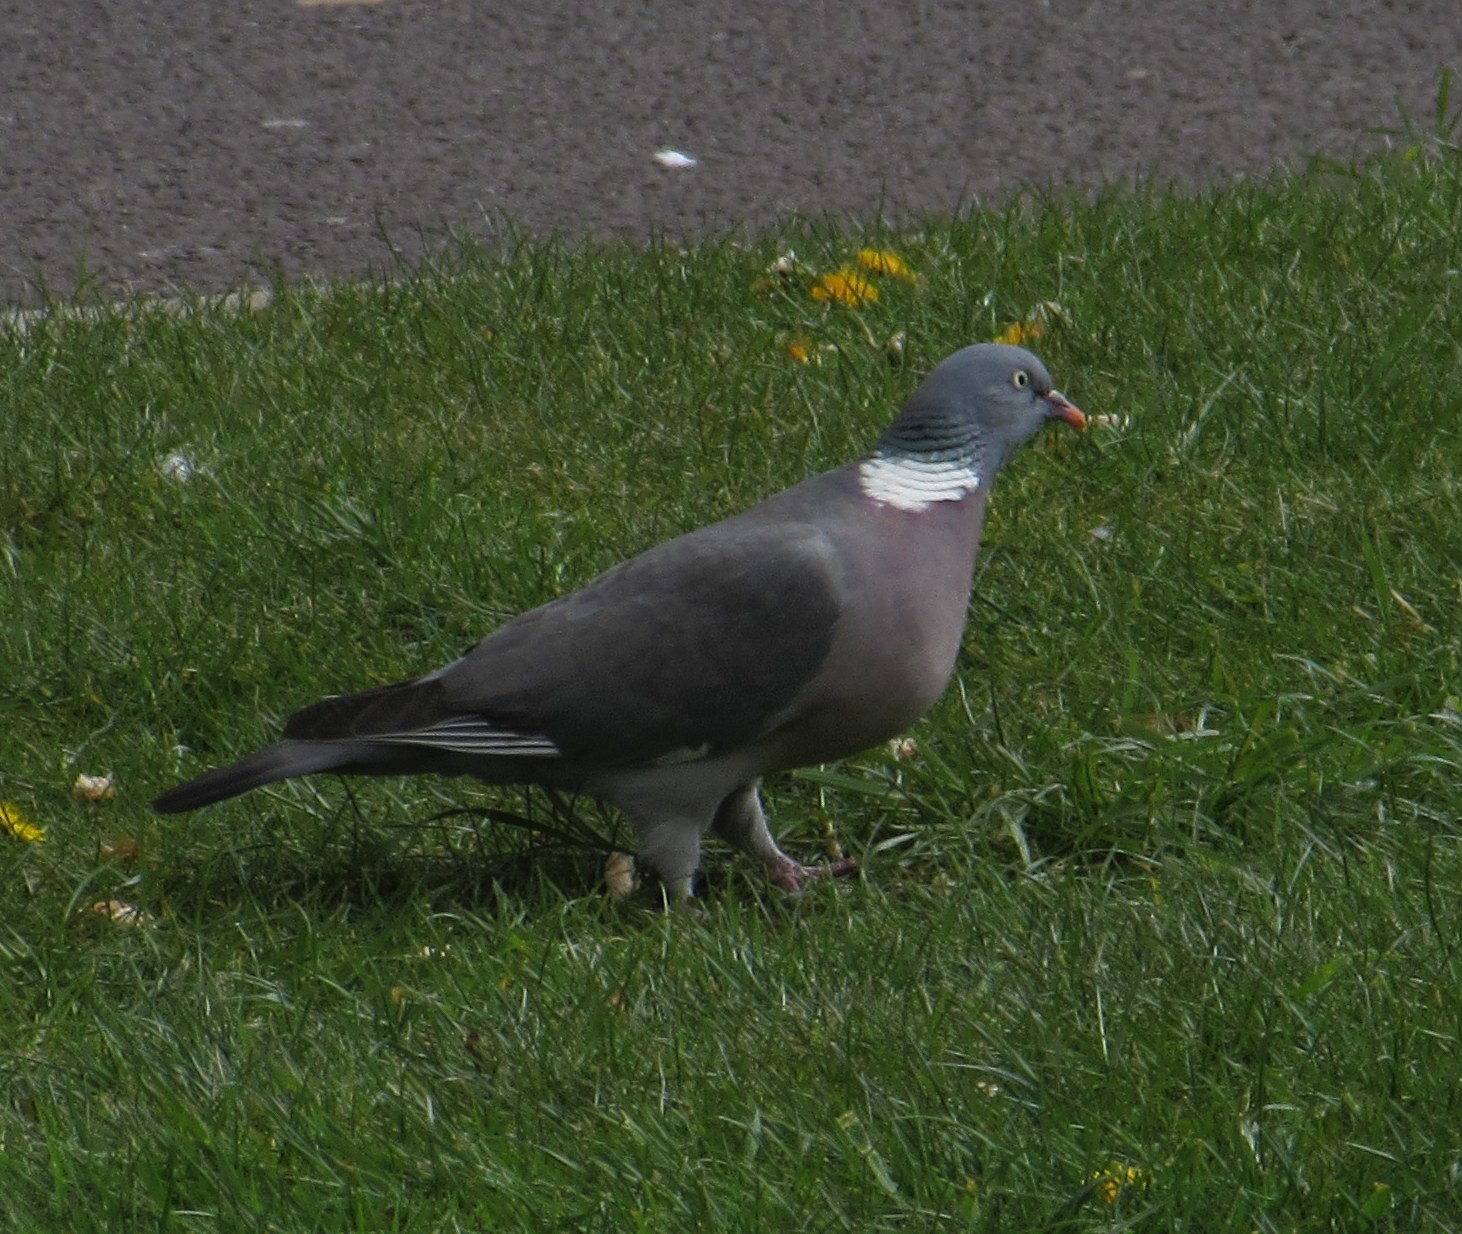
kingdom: Animalia
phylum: Chordata
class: Aves
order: Columbiformes
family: Columbidae
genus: Columba
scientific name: Columba palumbus
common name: Common wood pigeon
